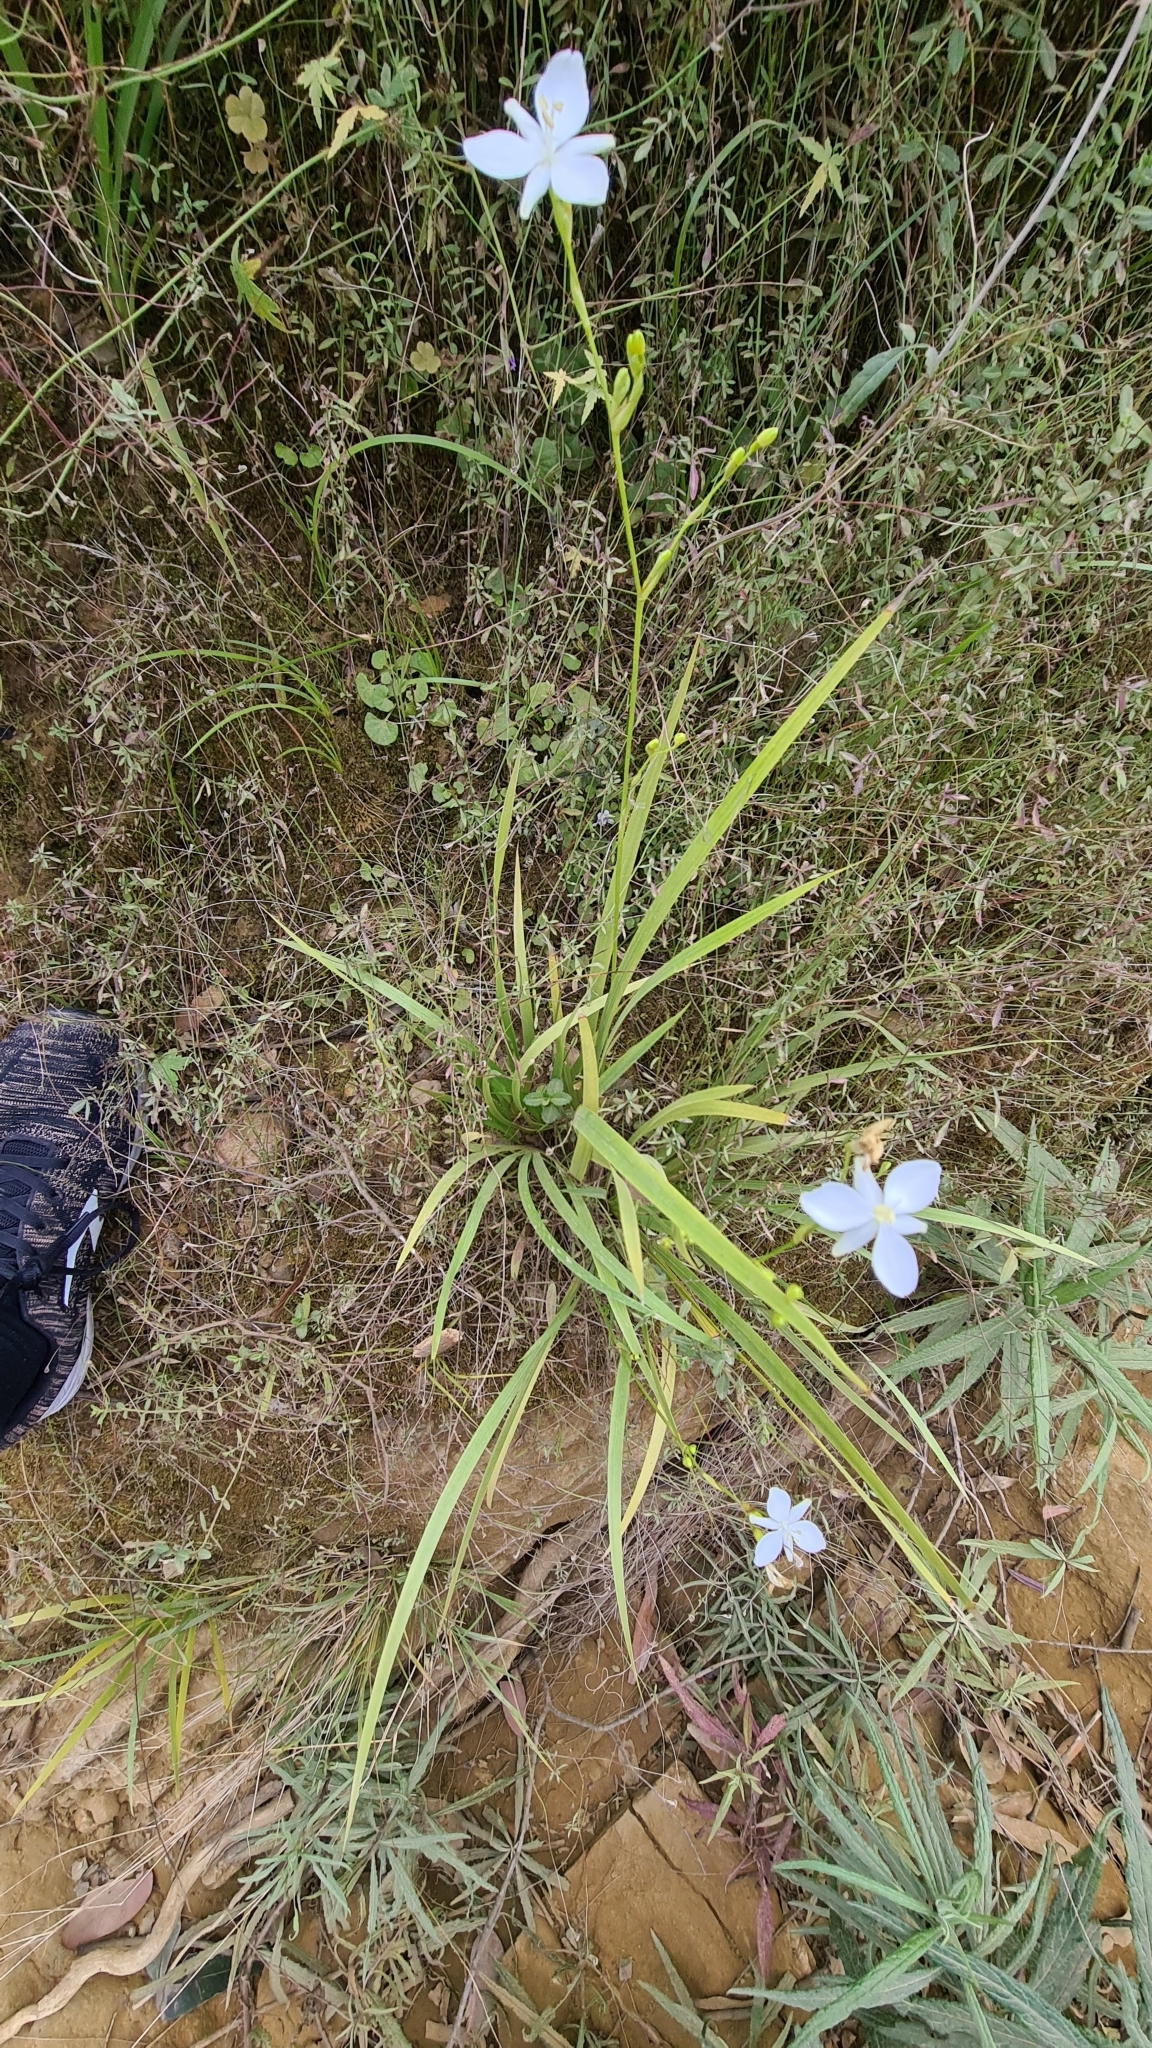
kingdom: Plantae
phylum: Tracheophyta
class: Liliopsida
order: Asparagales
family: Iridaceae
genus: Libertia
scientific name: Libertia paniculata
